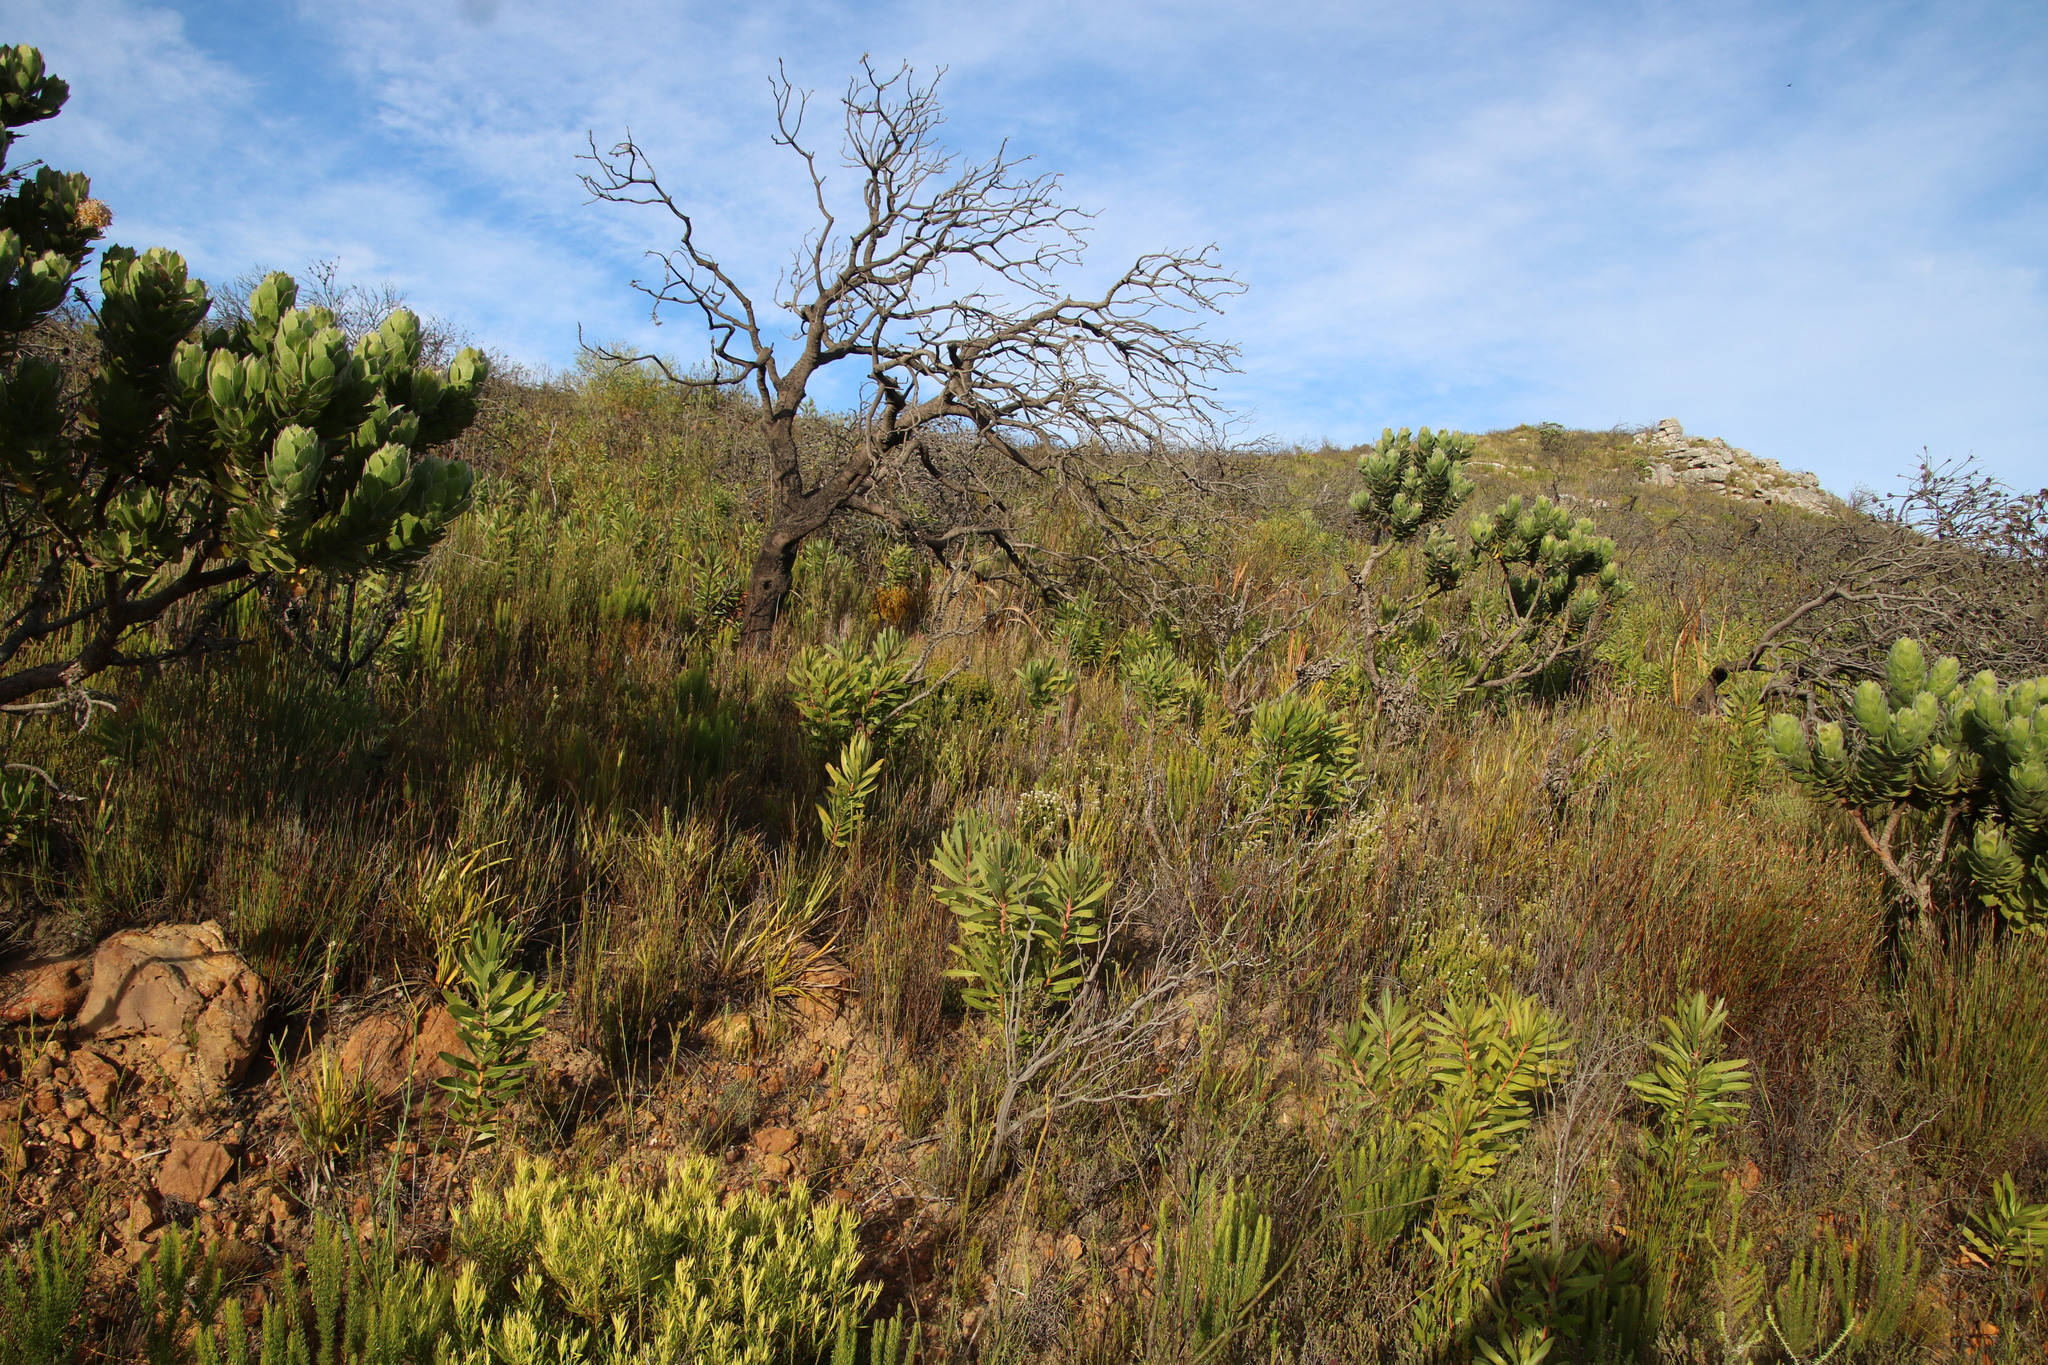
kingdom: Plantae
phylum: Tracheophyta
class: Magnoliopsida
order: Proteales
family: Proteaceae
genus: Leucospermum
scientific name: Leucospermum conocarpodendron
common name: Tree pincushion
